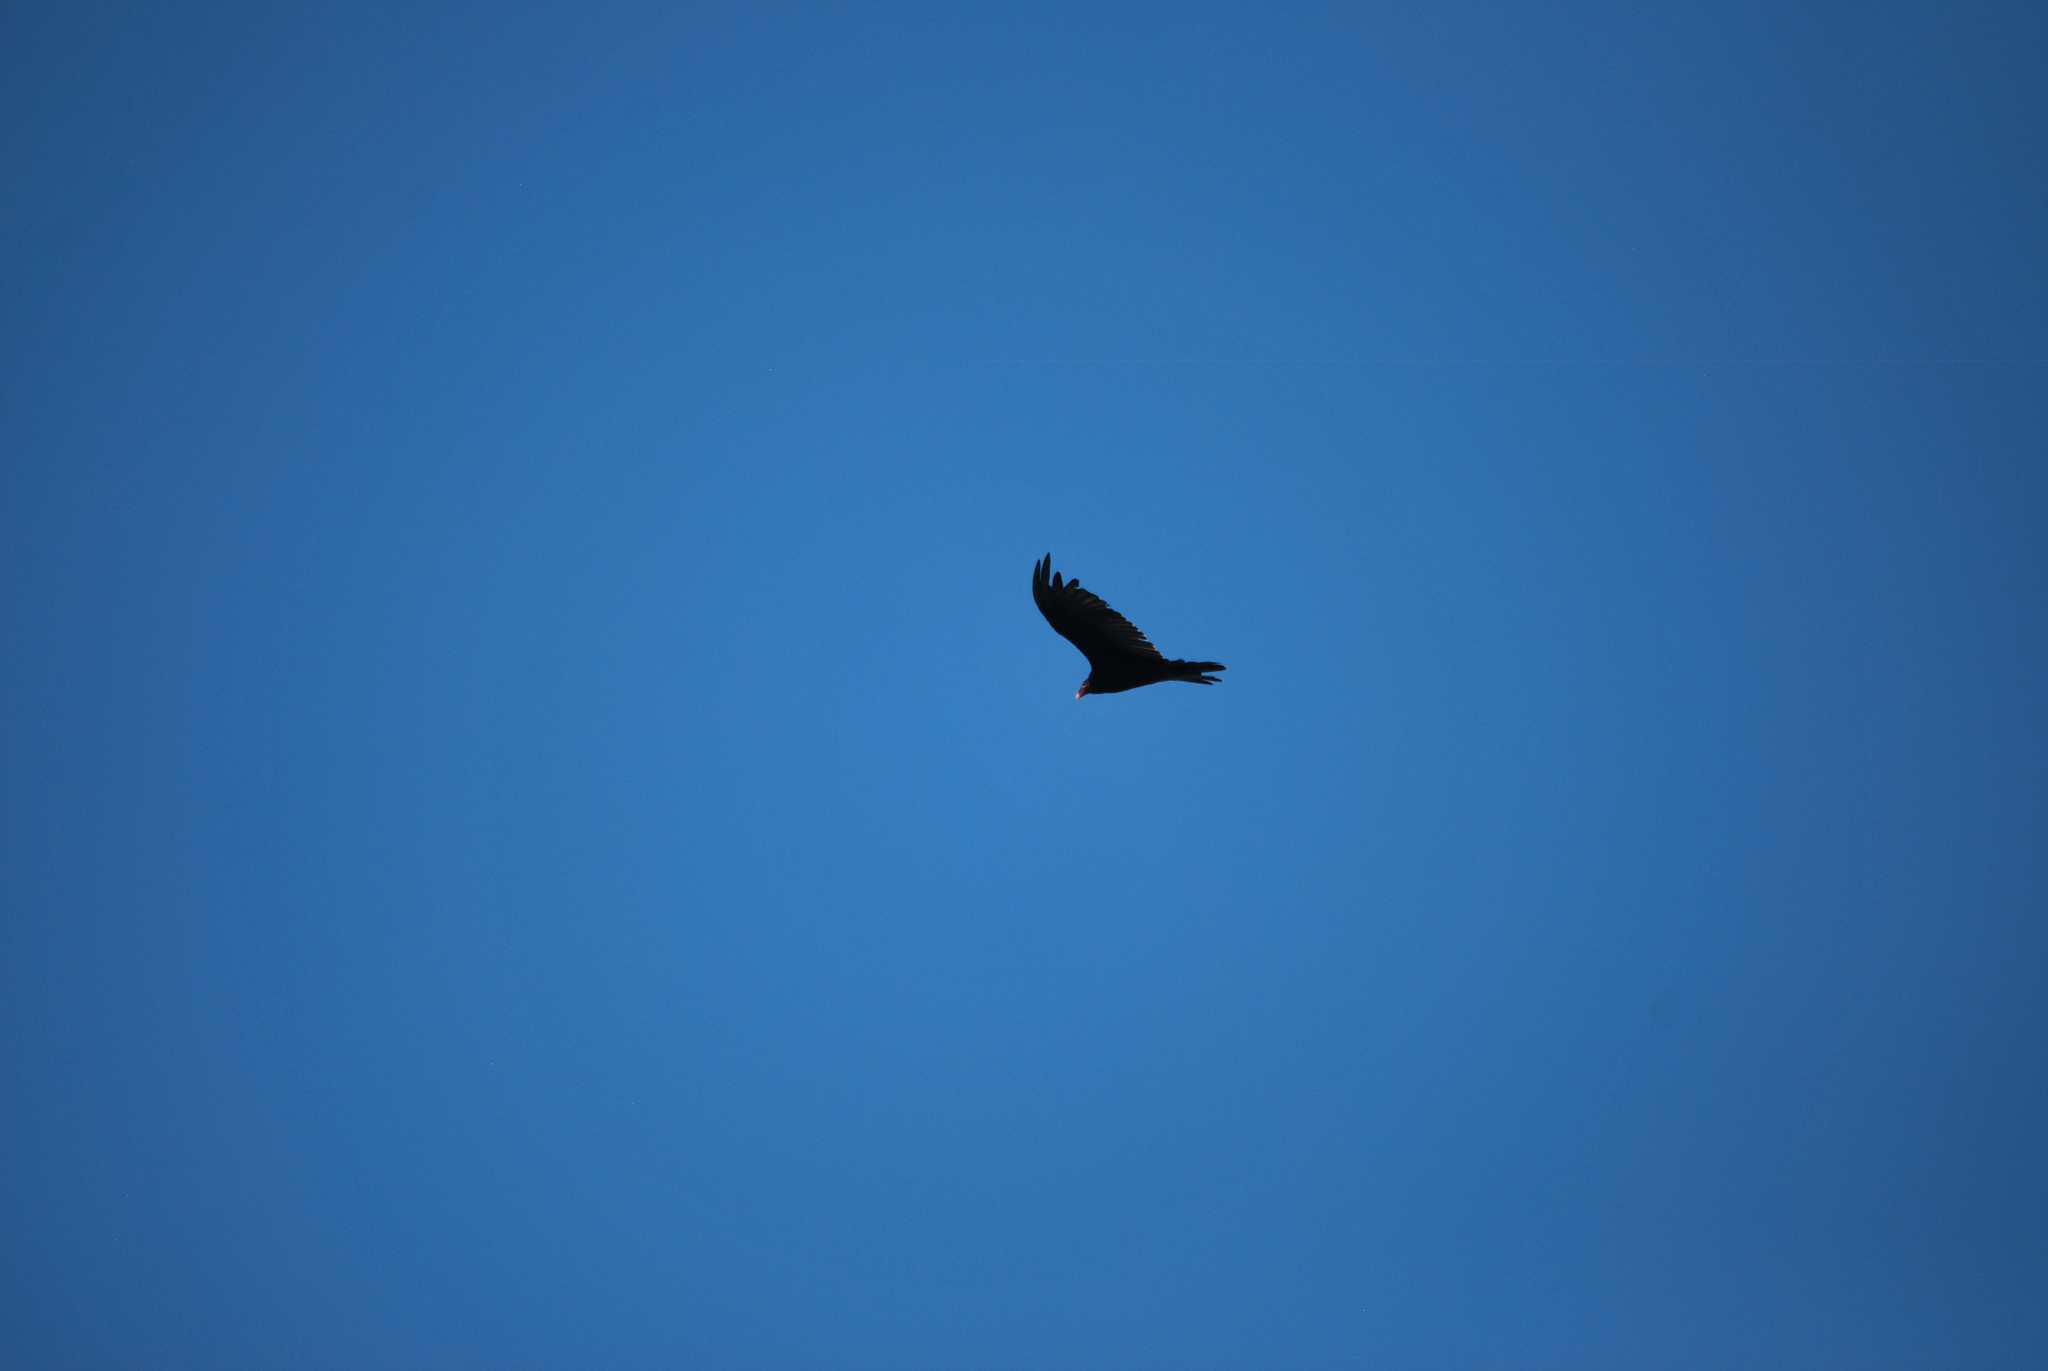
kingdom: Animalia
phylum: Chordata
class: Aves
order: Accipitriformes
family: Cathartidae
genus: Cathartes
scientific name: Cathartes aura
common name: Turkey vulture
